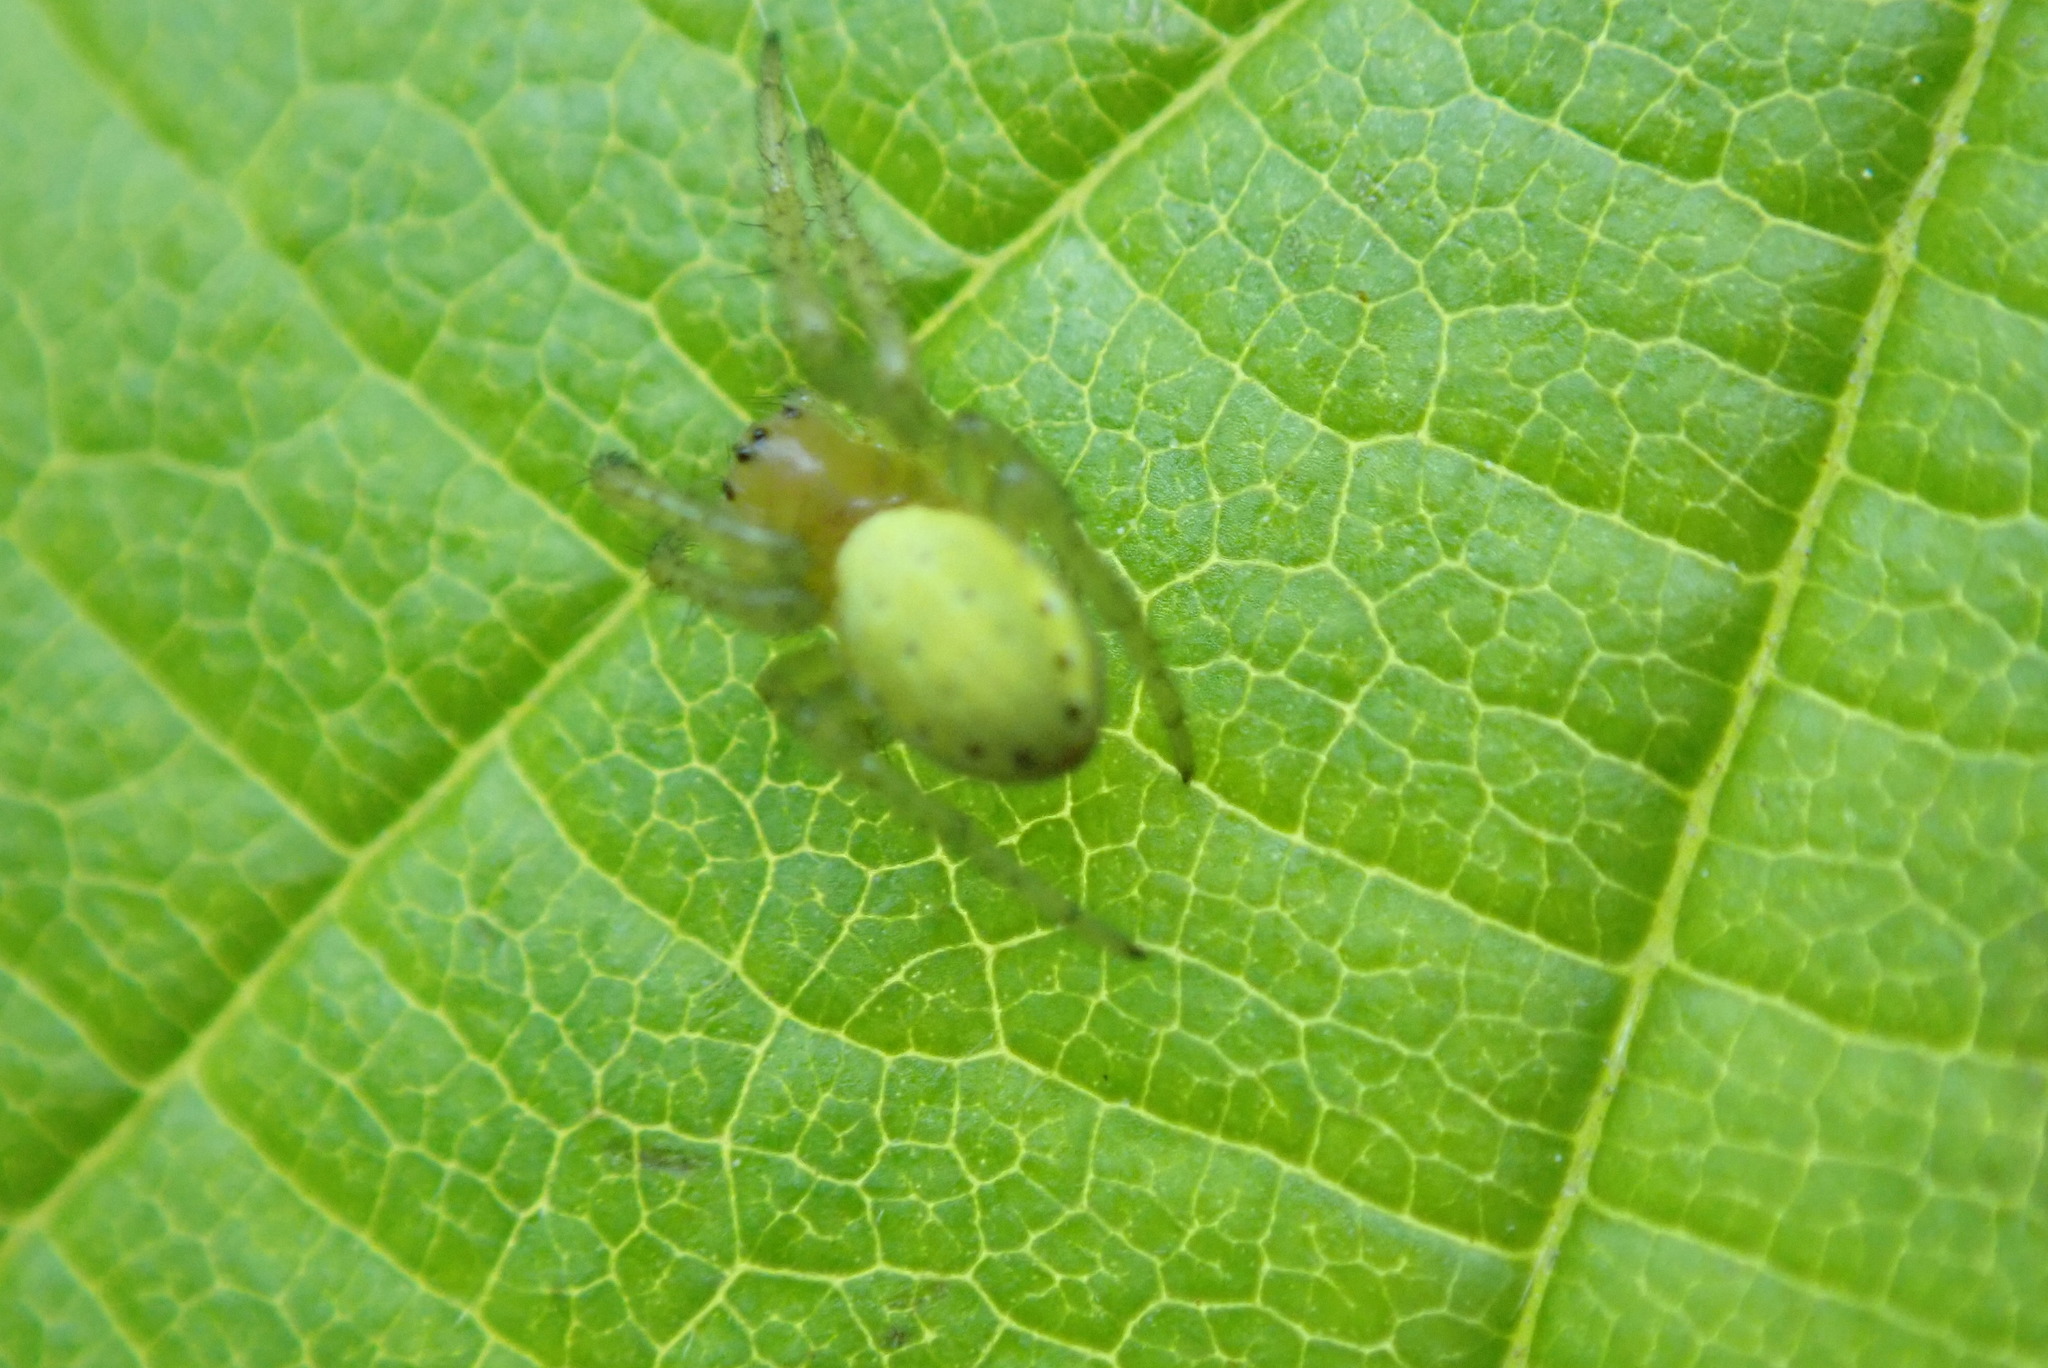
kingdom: Animalia
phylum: Arthropoda
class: Arachnida
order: Araneae
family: Araneidae
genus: Araniella
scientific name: Araniella cucurbitina
